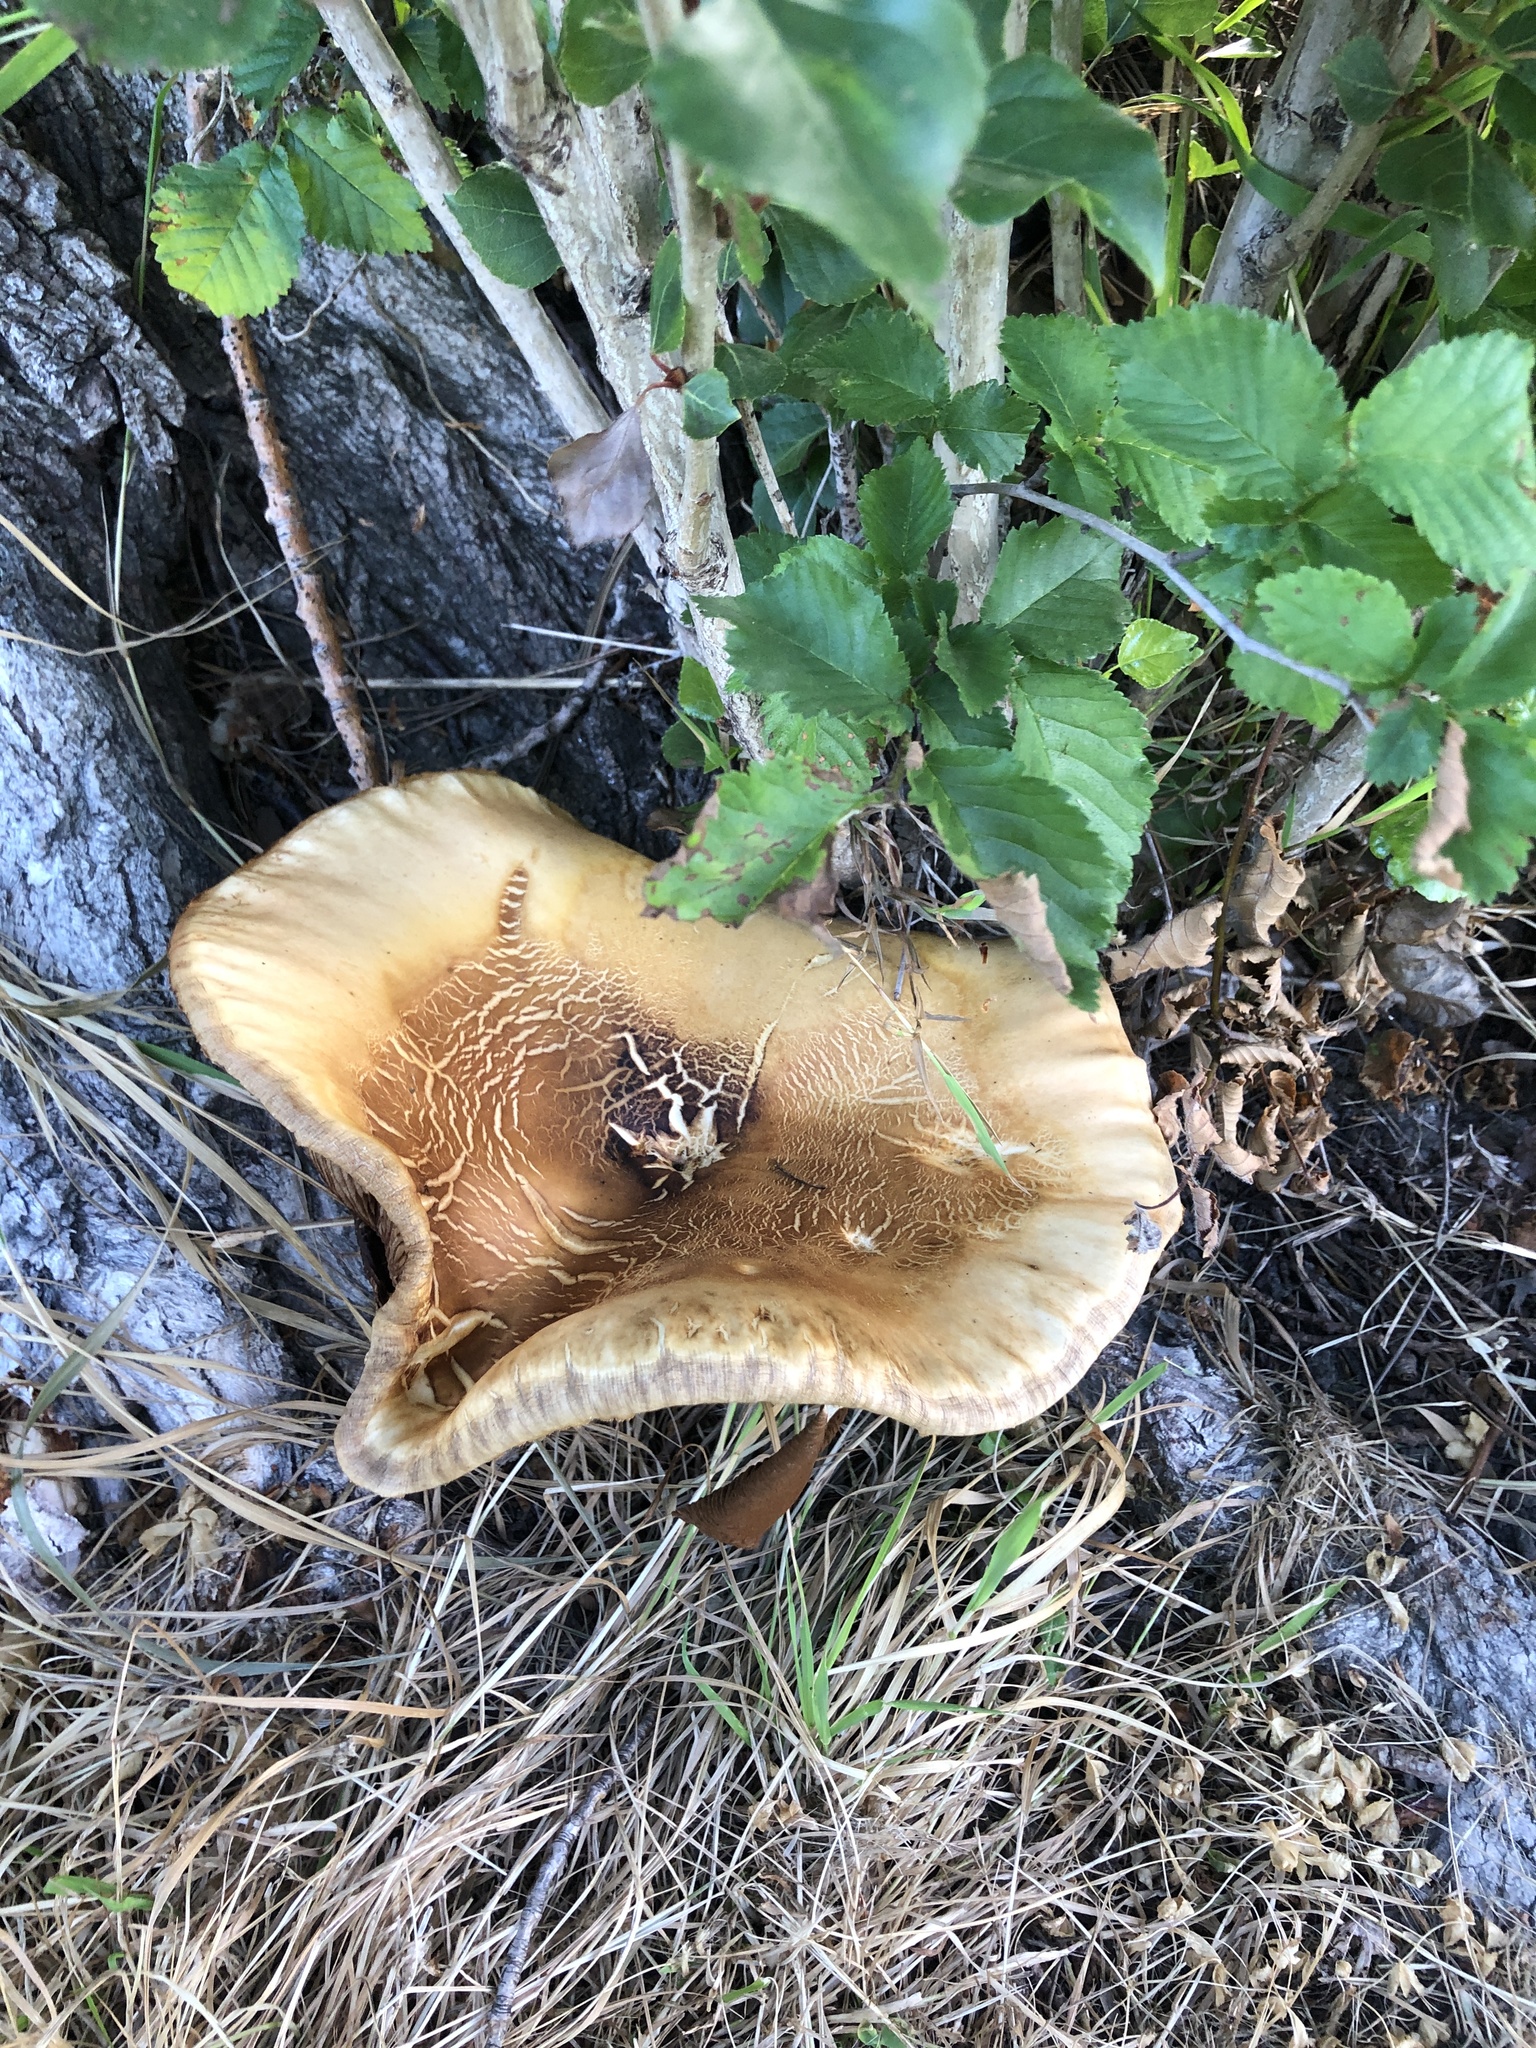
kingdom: Fungi
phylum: Basidiomycota
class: Agaricomycetes
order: Agaricales
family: Tubariaceae
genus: Cyclocybe
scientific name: Cyclocybe parasitica
